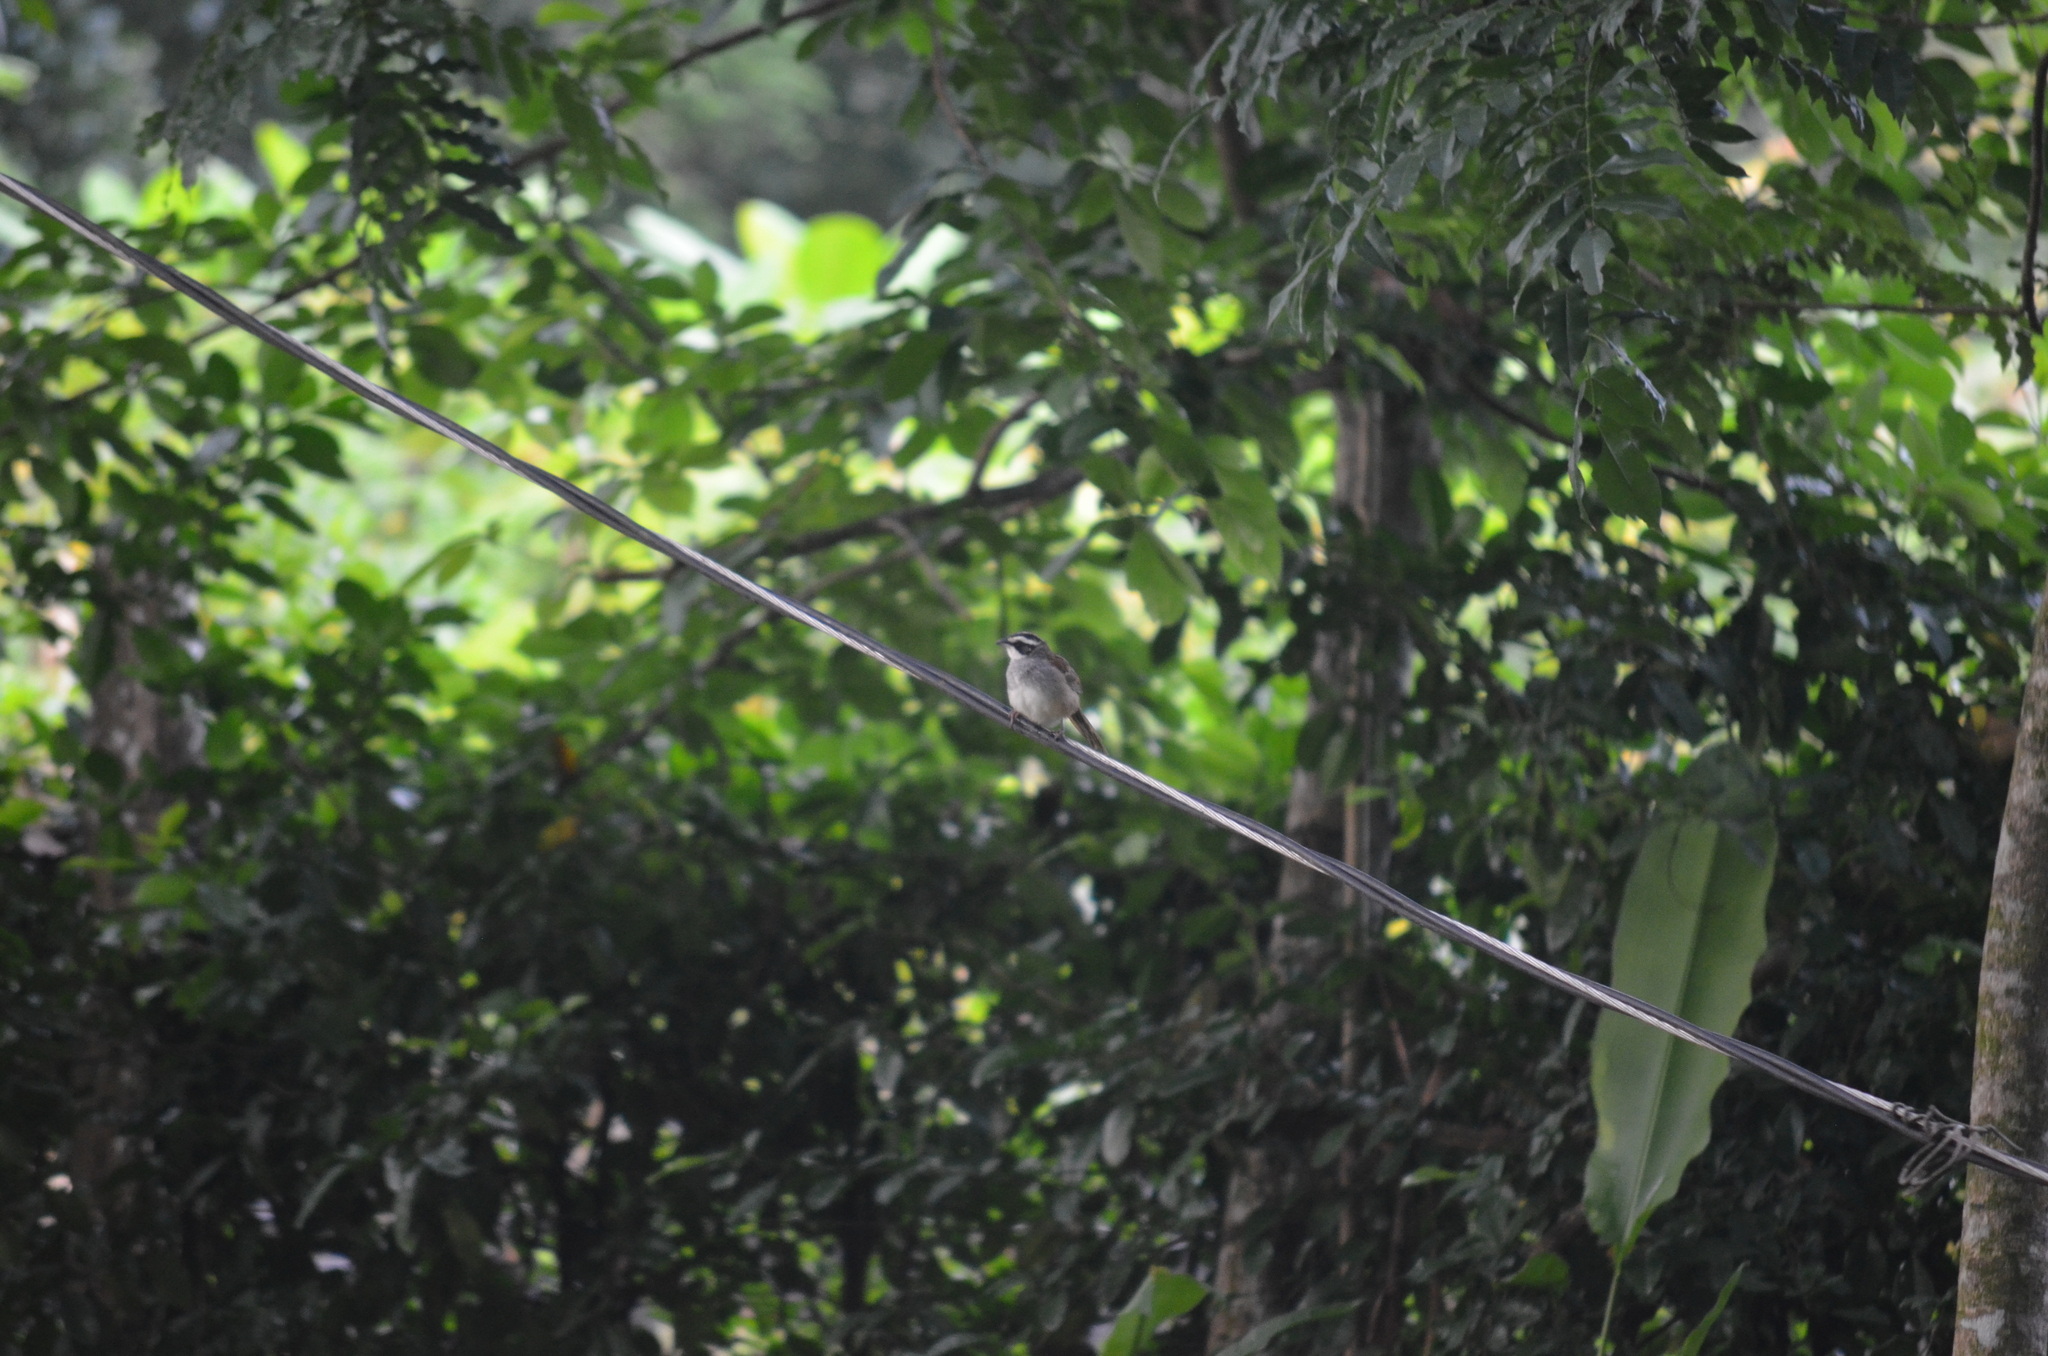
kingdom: Animalia
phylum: Chordata
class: Aves
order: Passeriformes
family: Passerellidae
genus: Peucaea
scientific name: Peucaea ruficauda
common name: Stripe-headed sparrow
